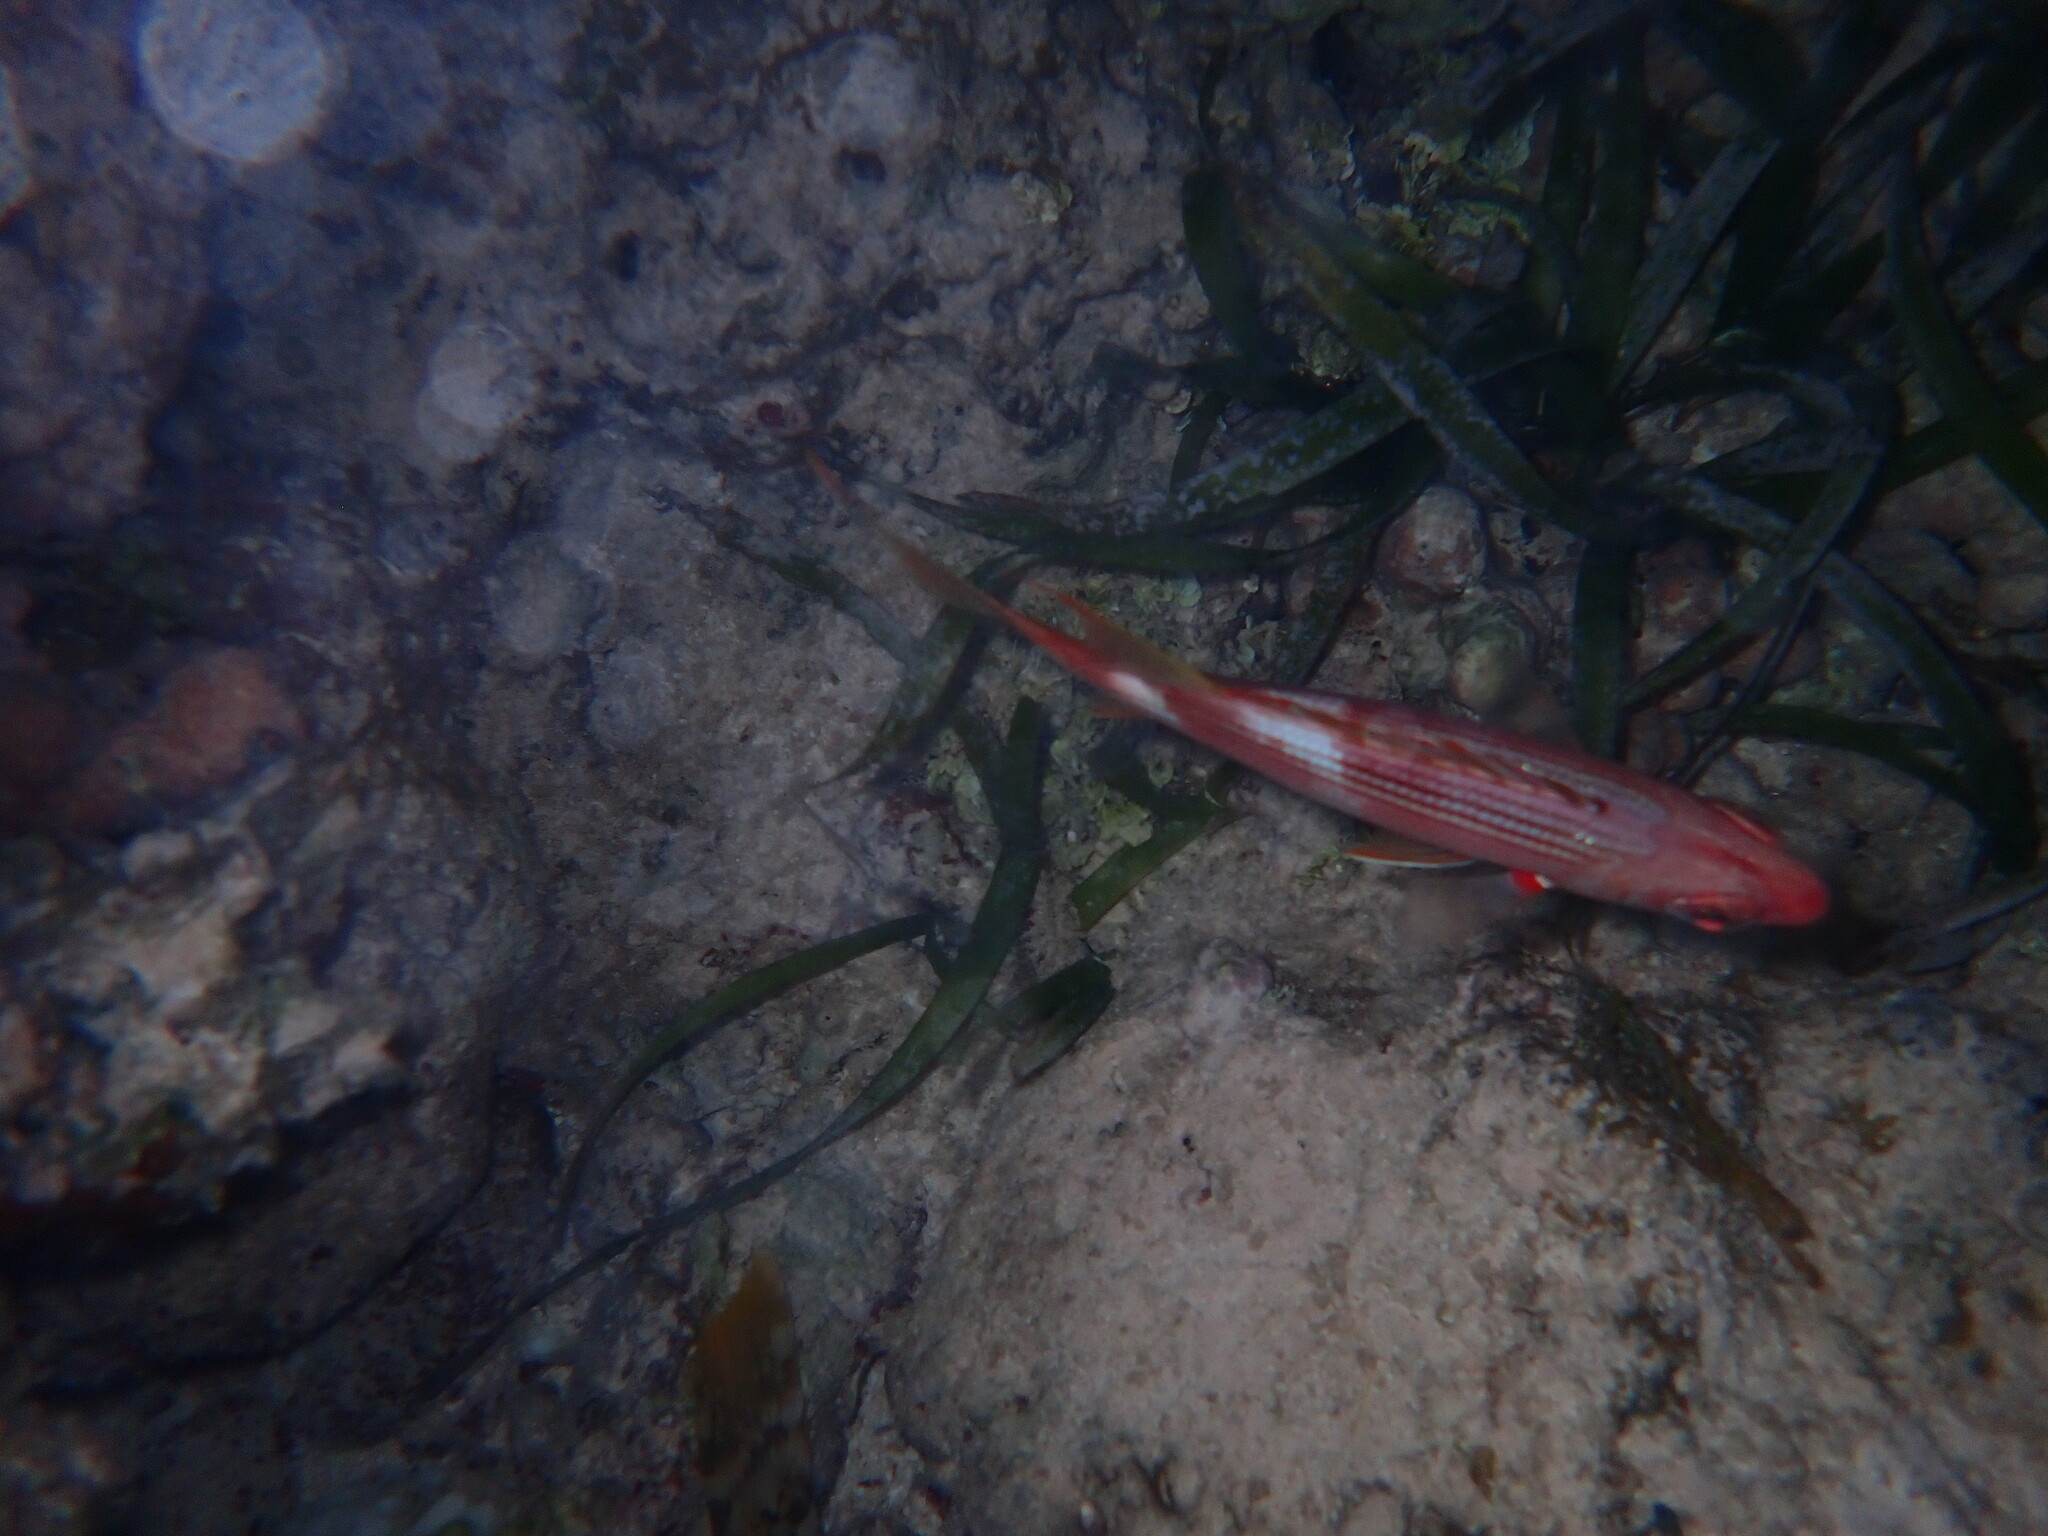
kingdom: Animalia
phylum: Chordata
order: Beryciformes
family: Holocentridae
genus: Holocentrus
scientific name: Holocentrus adscensionis
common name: Squirrelfish
